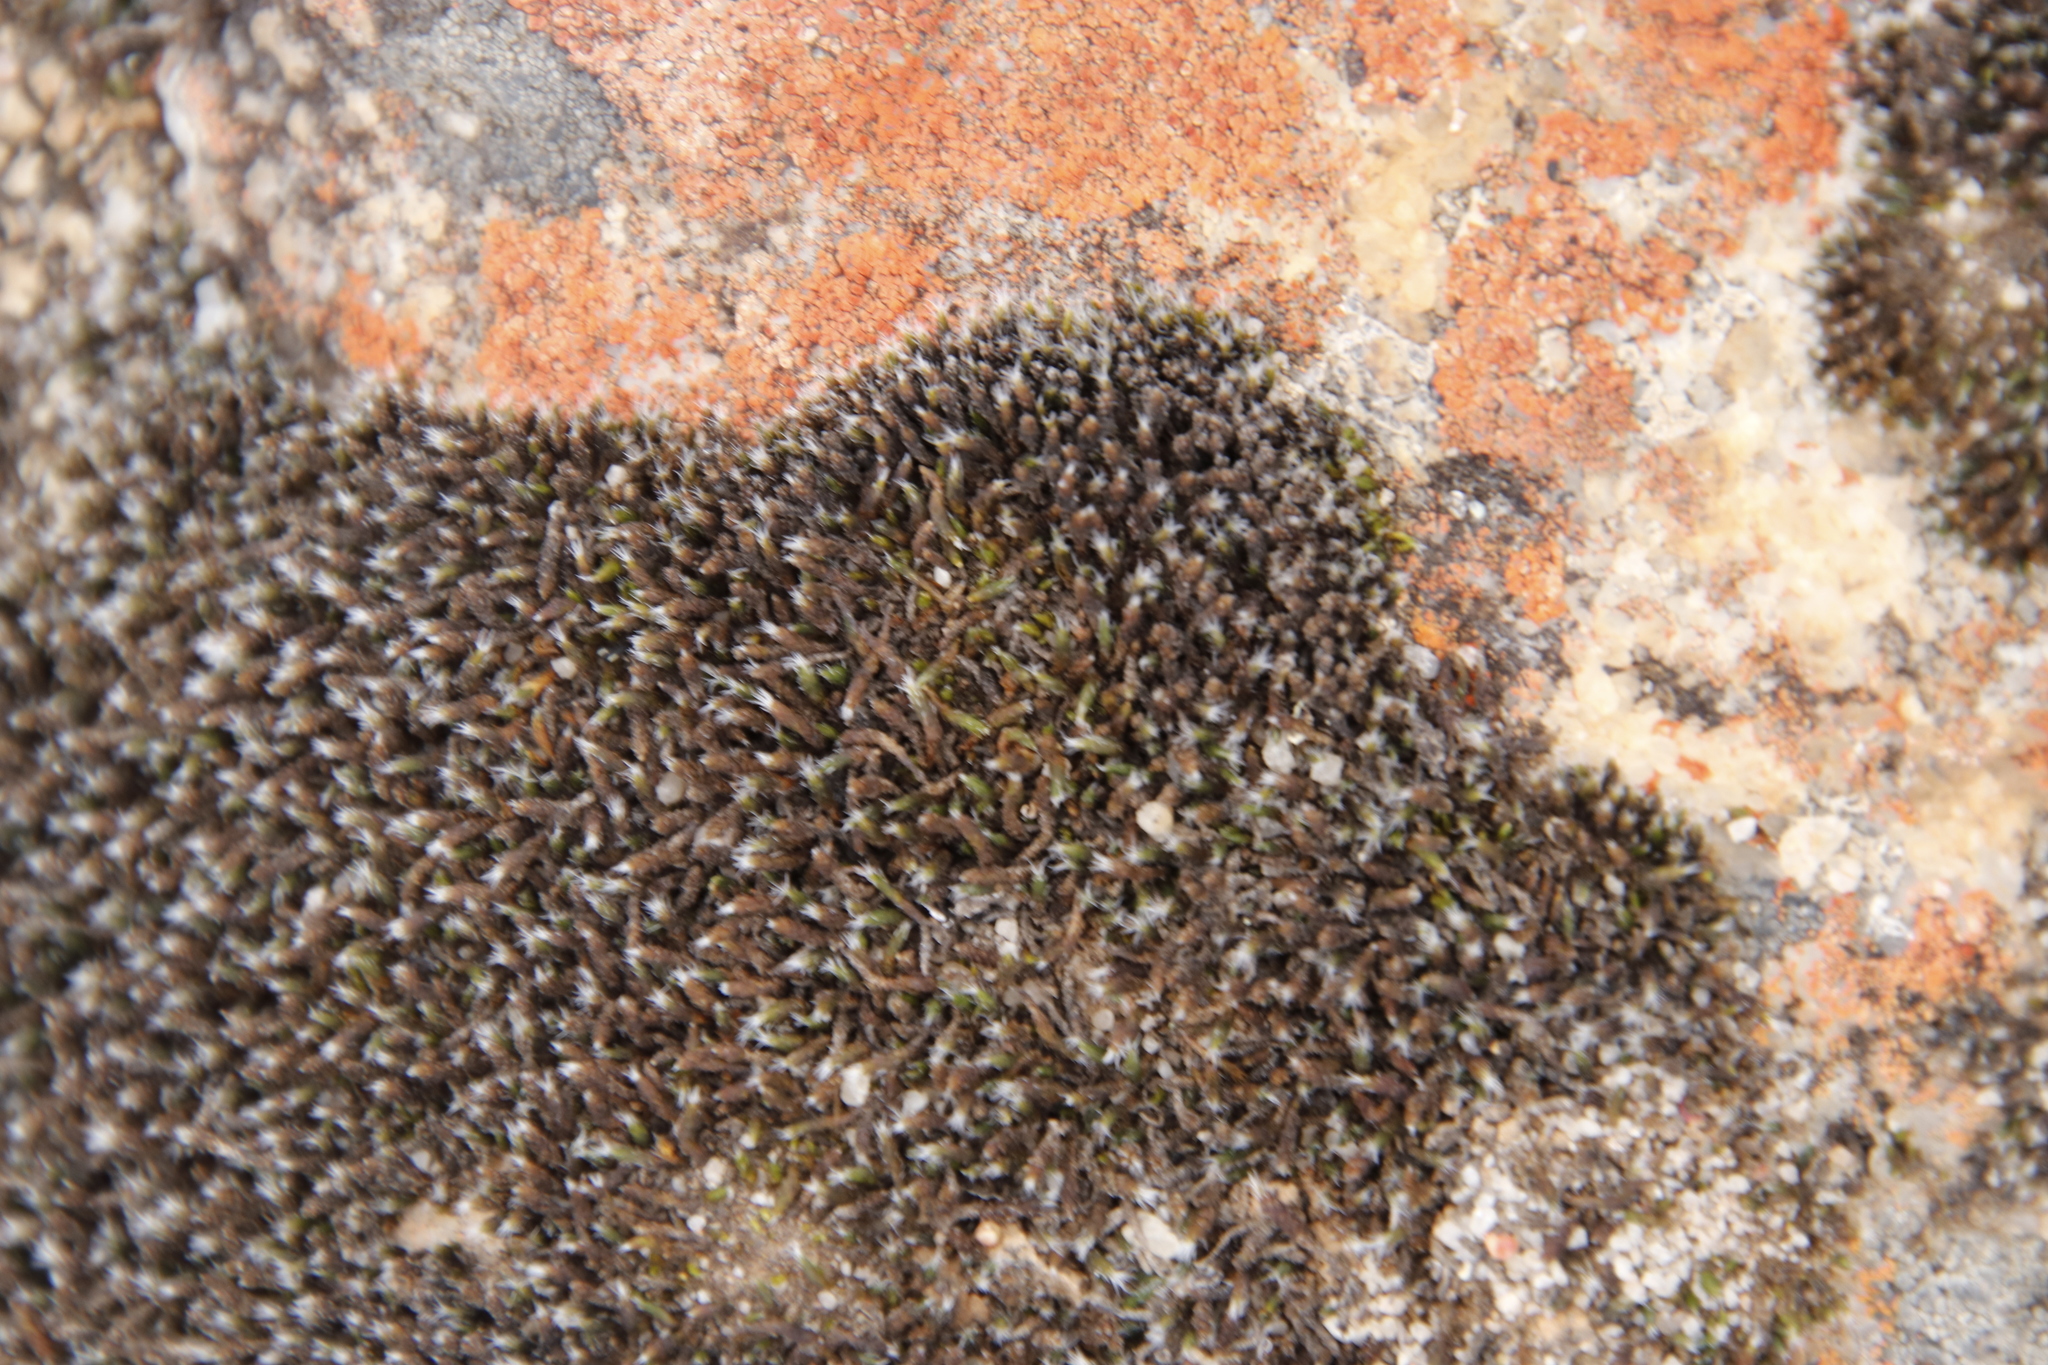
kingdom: Plantae
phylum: Bryophyta
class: Bryopsida
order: Grimmiales
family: Grimmiaceae
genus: Grimmia
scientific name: Grimmia laevigata
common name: Hoary grimmia
